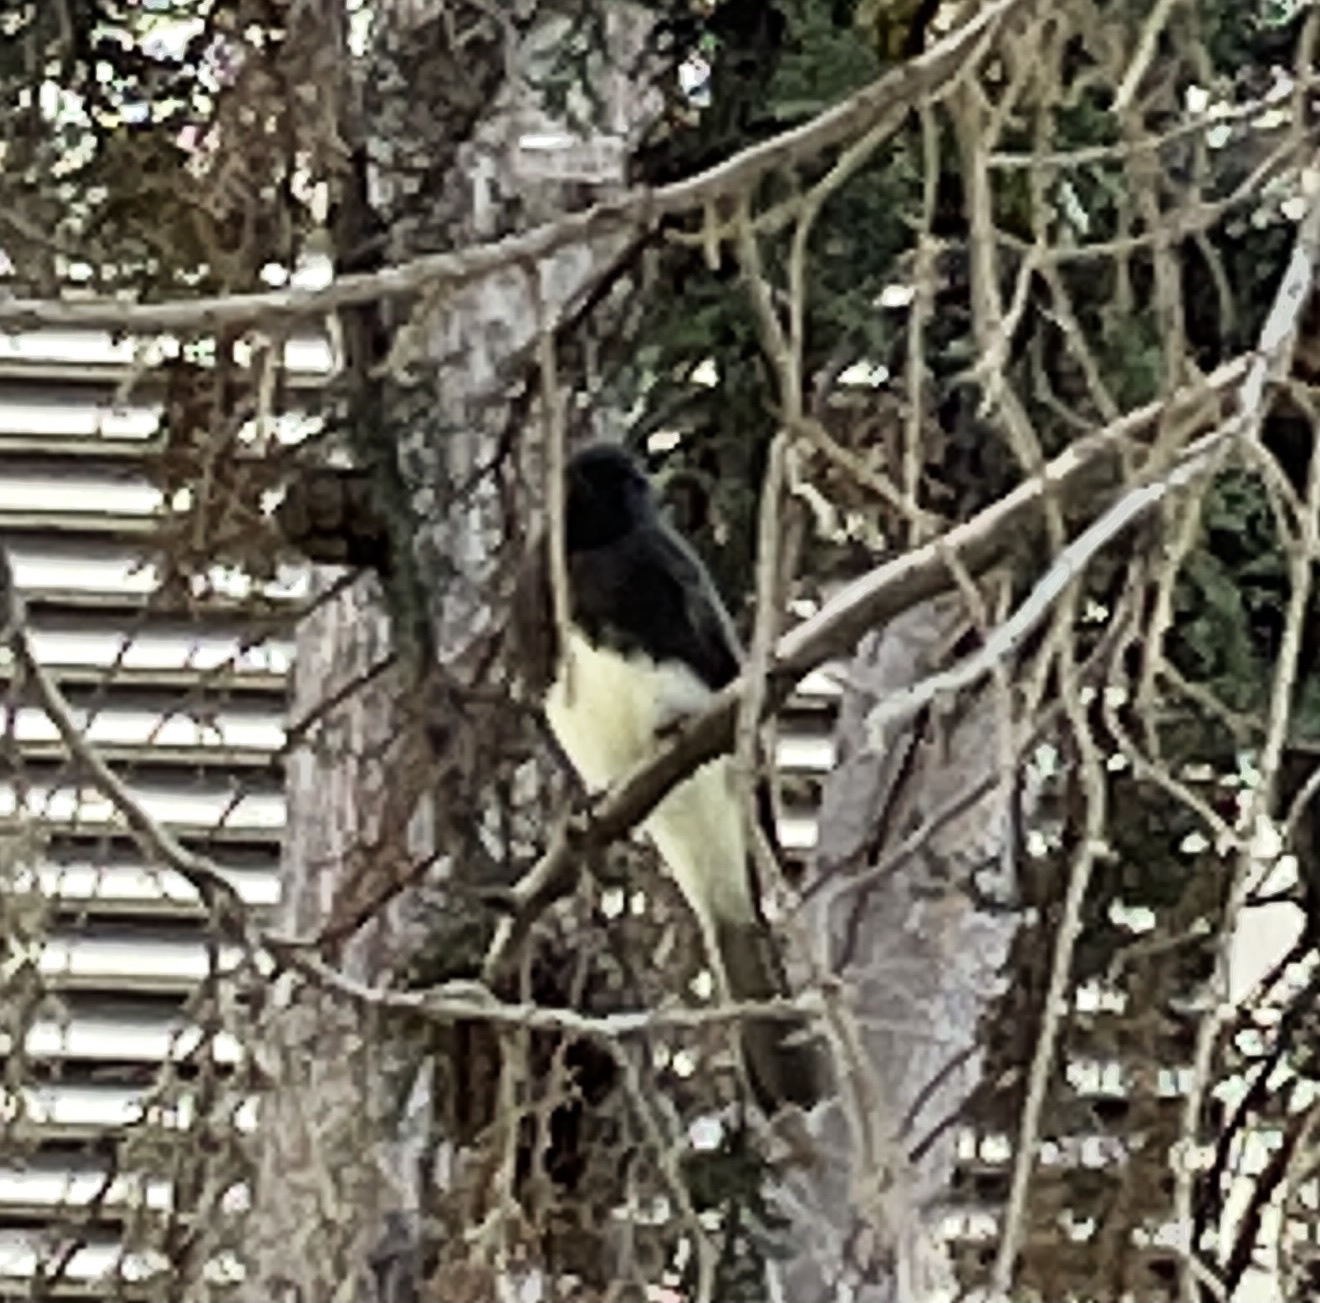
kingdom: Animalia
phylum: Chordata
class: Aves
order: Passeriformes
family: Tyrannidae
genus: Sayornis
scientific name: Sayornis nigricans
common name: Black phoebe
